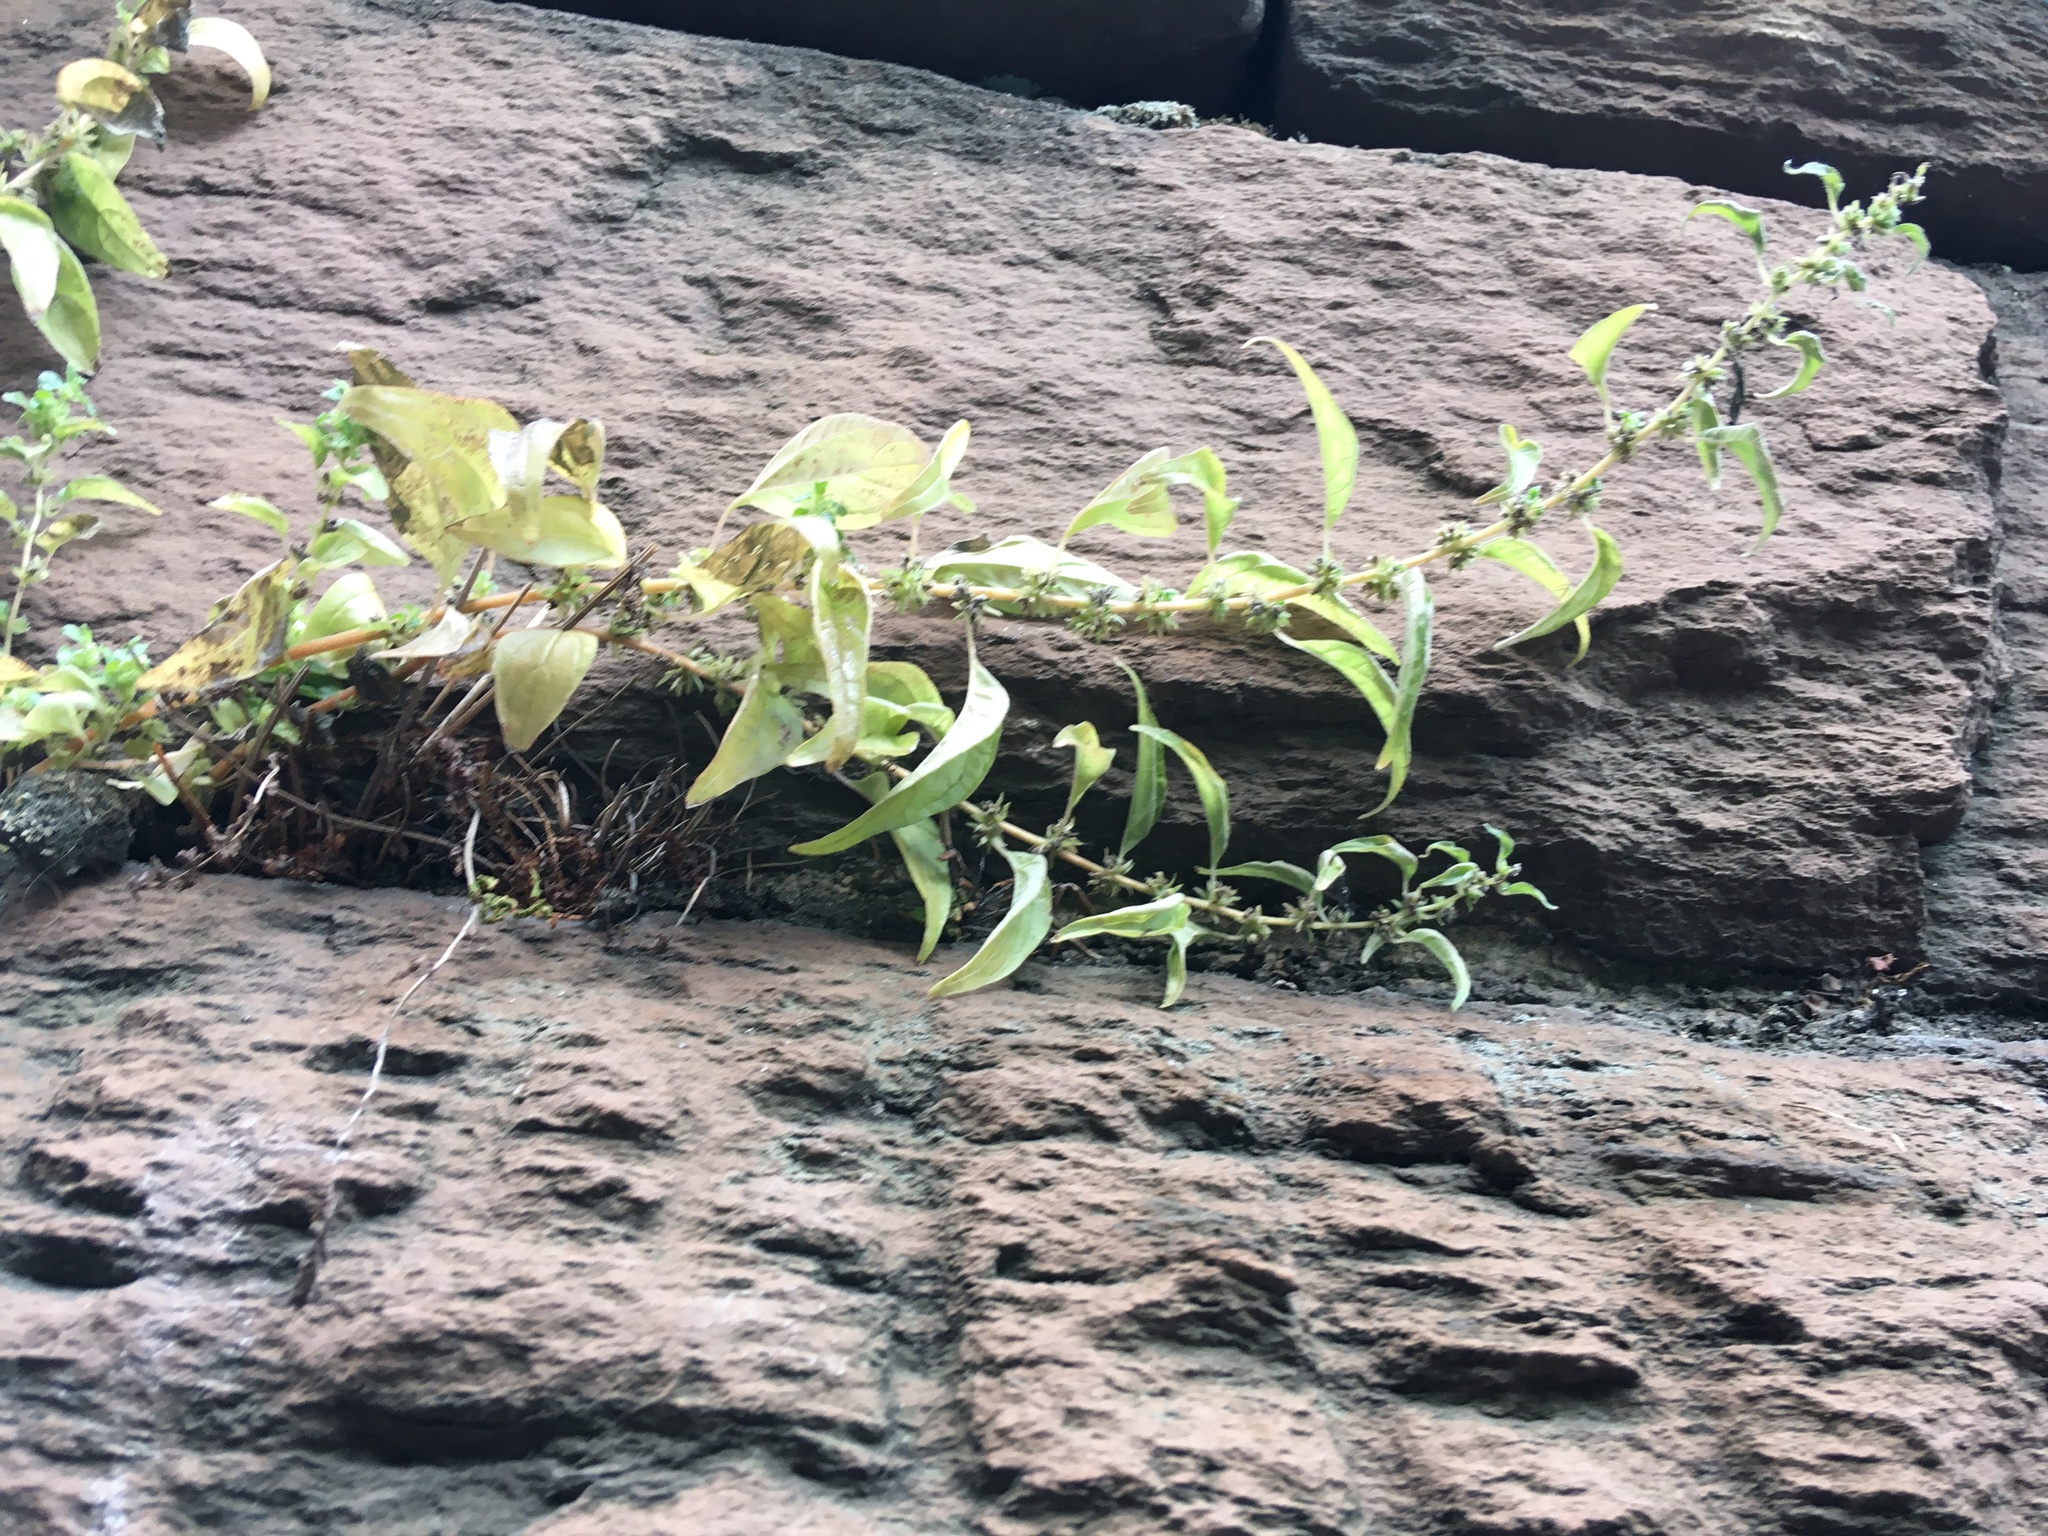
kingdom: Plantae
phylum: Tracheophyta
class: Magnoliopsida
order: Rosales
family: Urticaceae
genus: Parietaria
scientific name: Parietaria pensylvanica
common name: Pennsylvania pellitory
